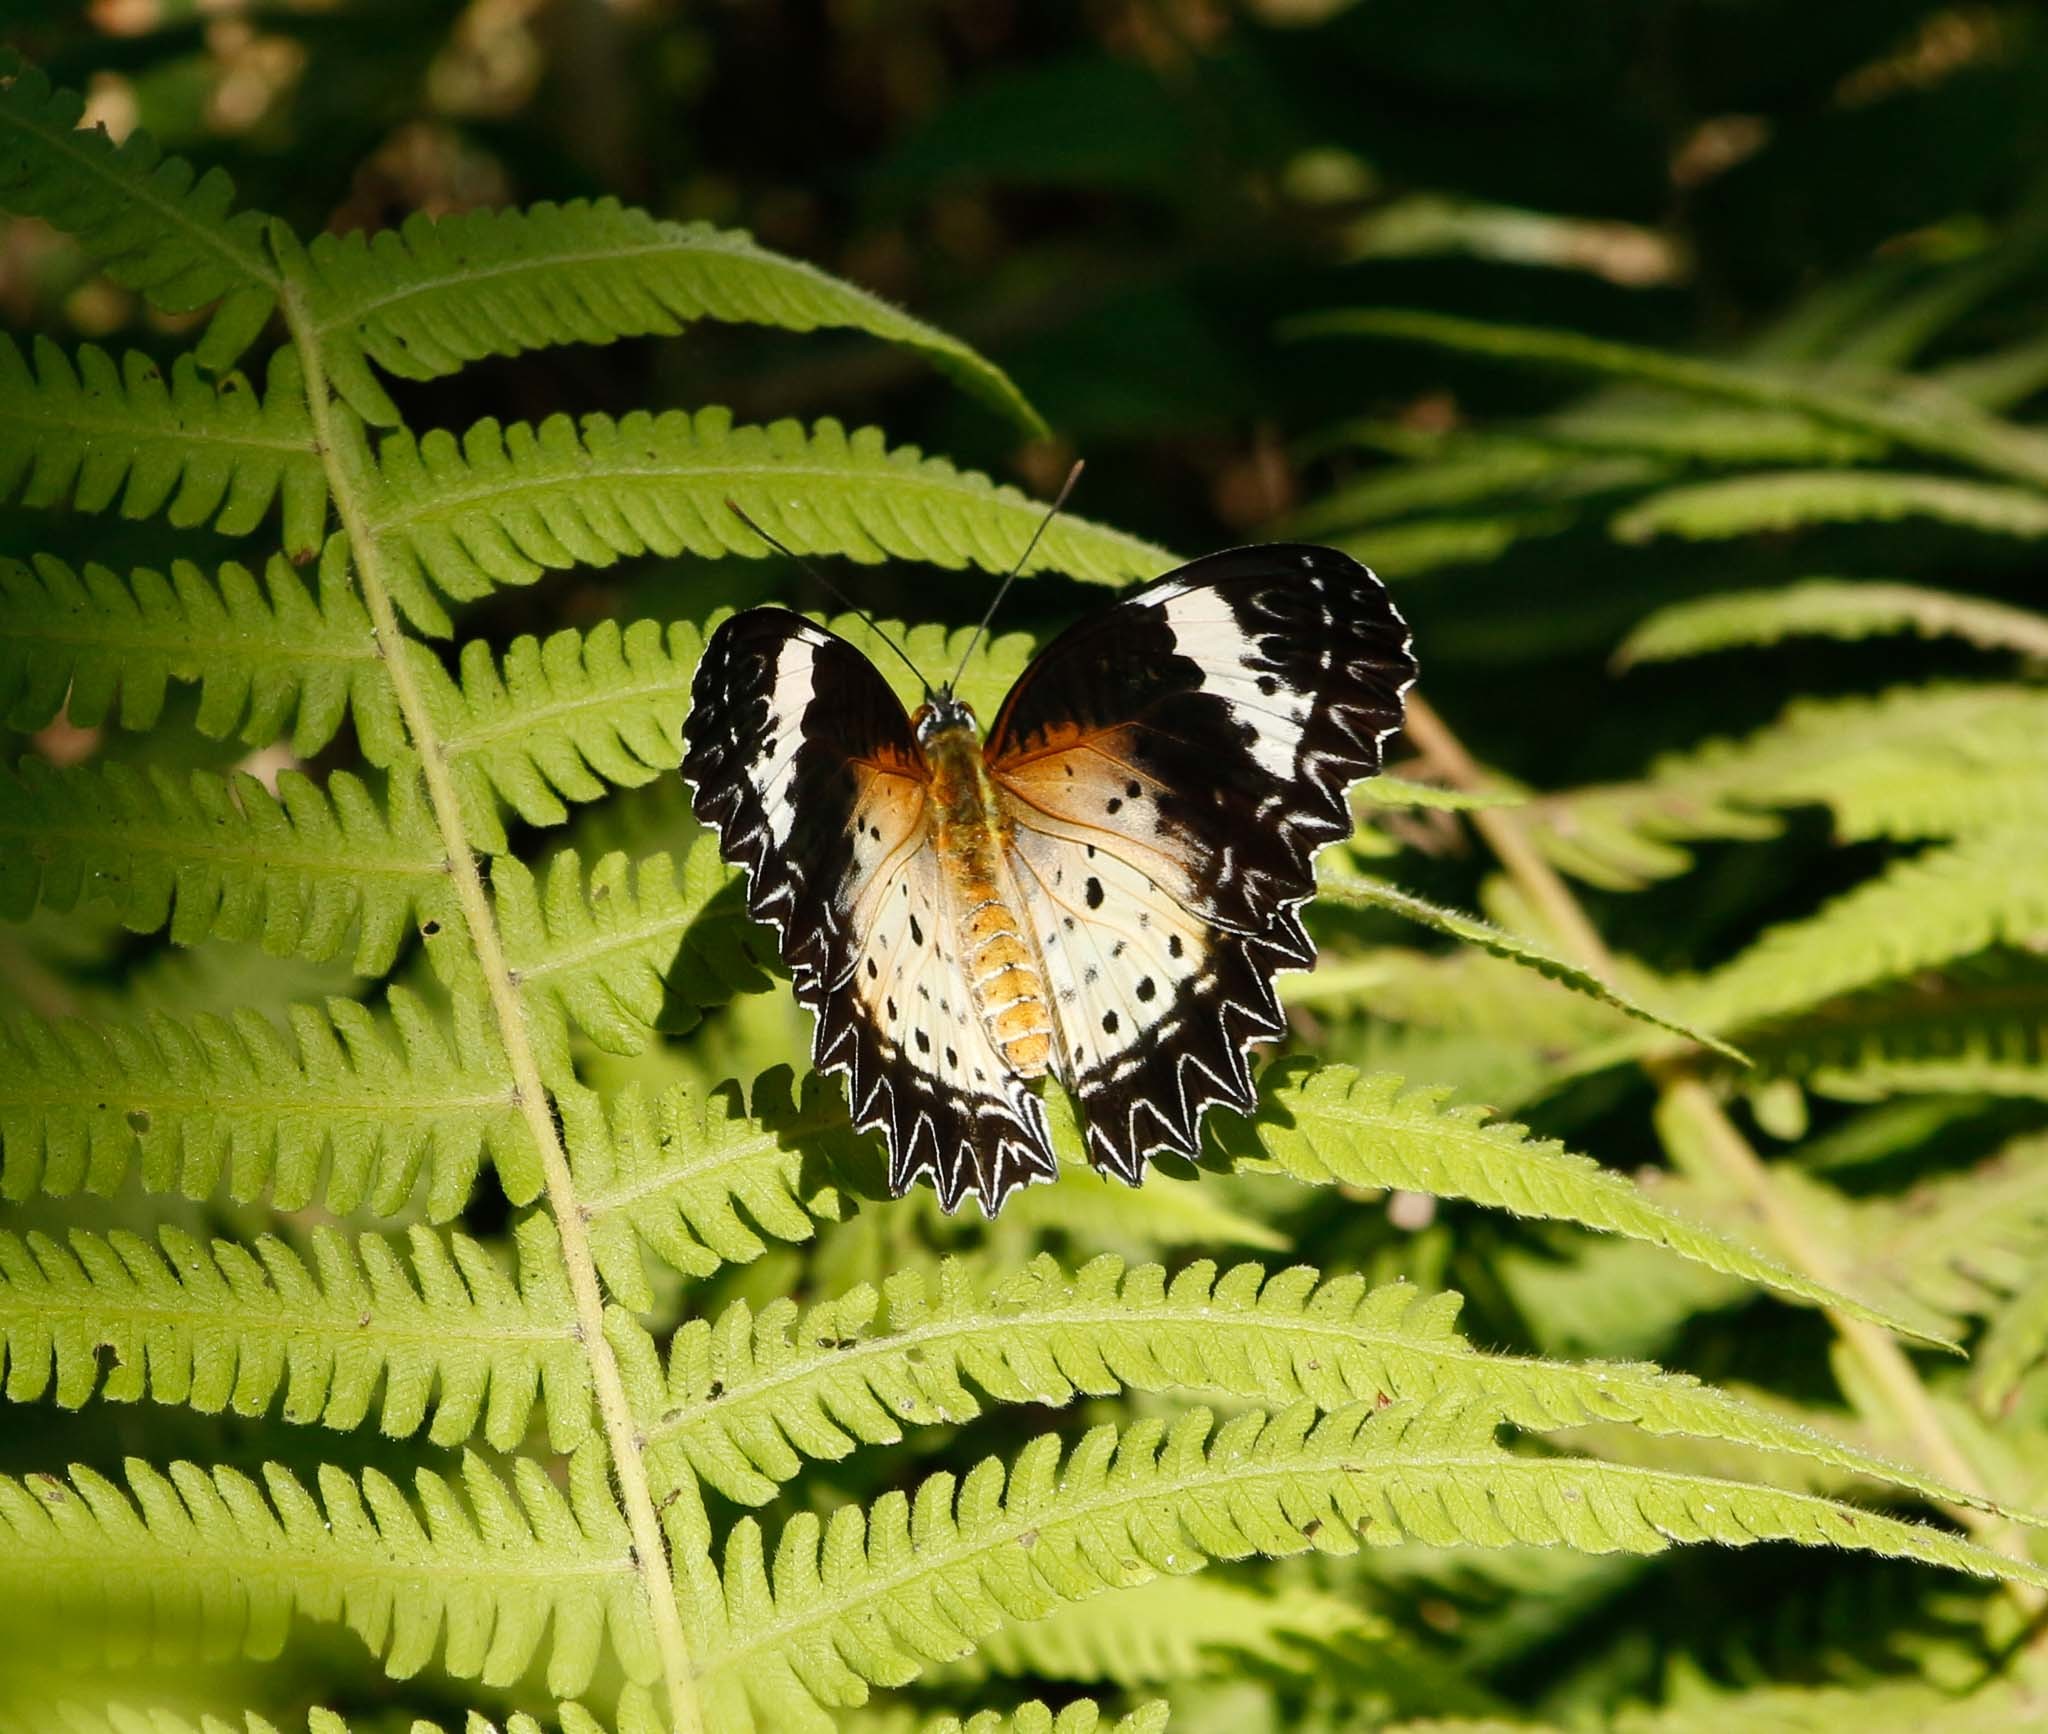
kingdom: Animalia
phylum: Arthropoda
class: Insecta
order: Lepidoptera
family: Nymphalidae
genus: Cethosia
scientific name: Cethosia cyane
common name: Leopard lacewing butterfly
